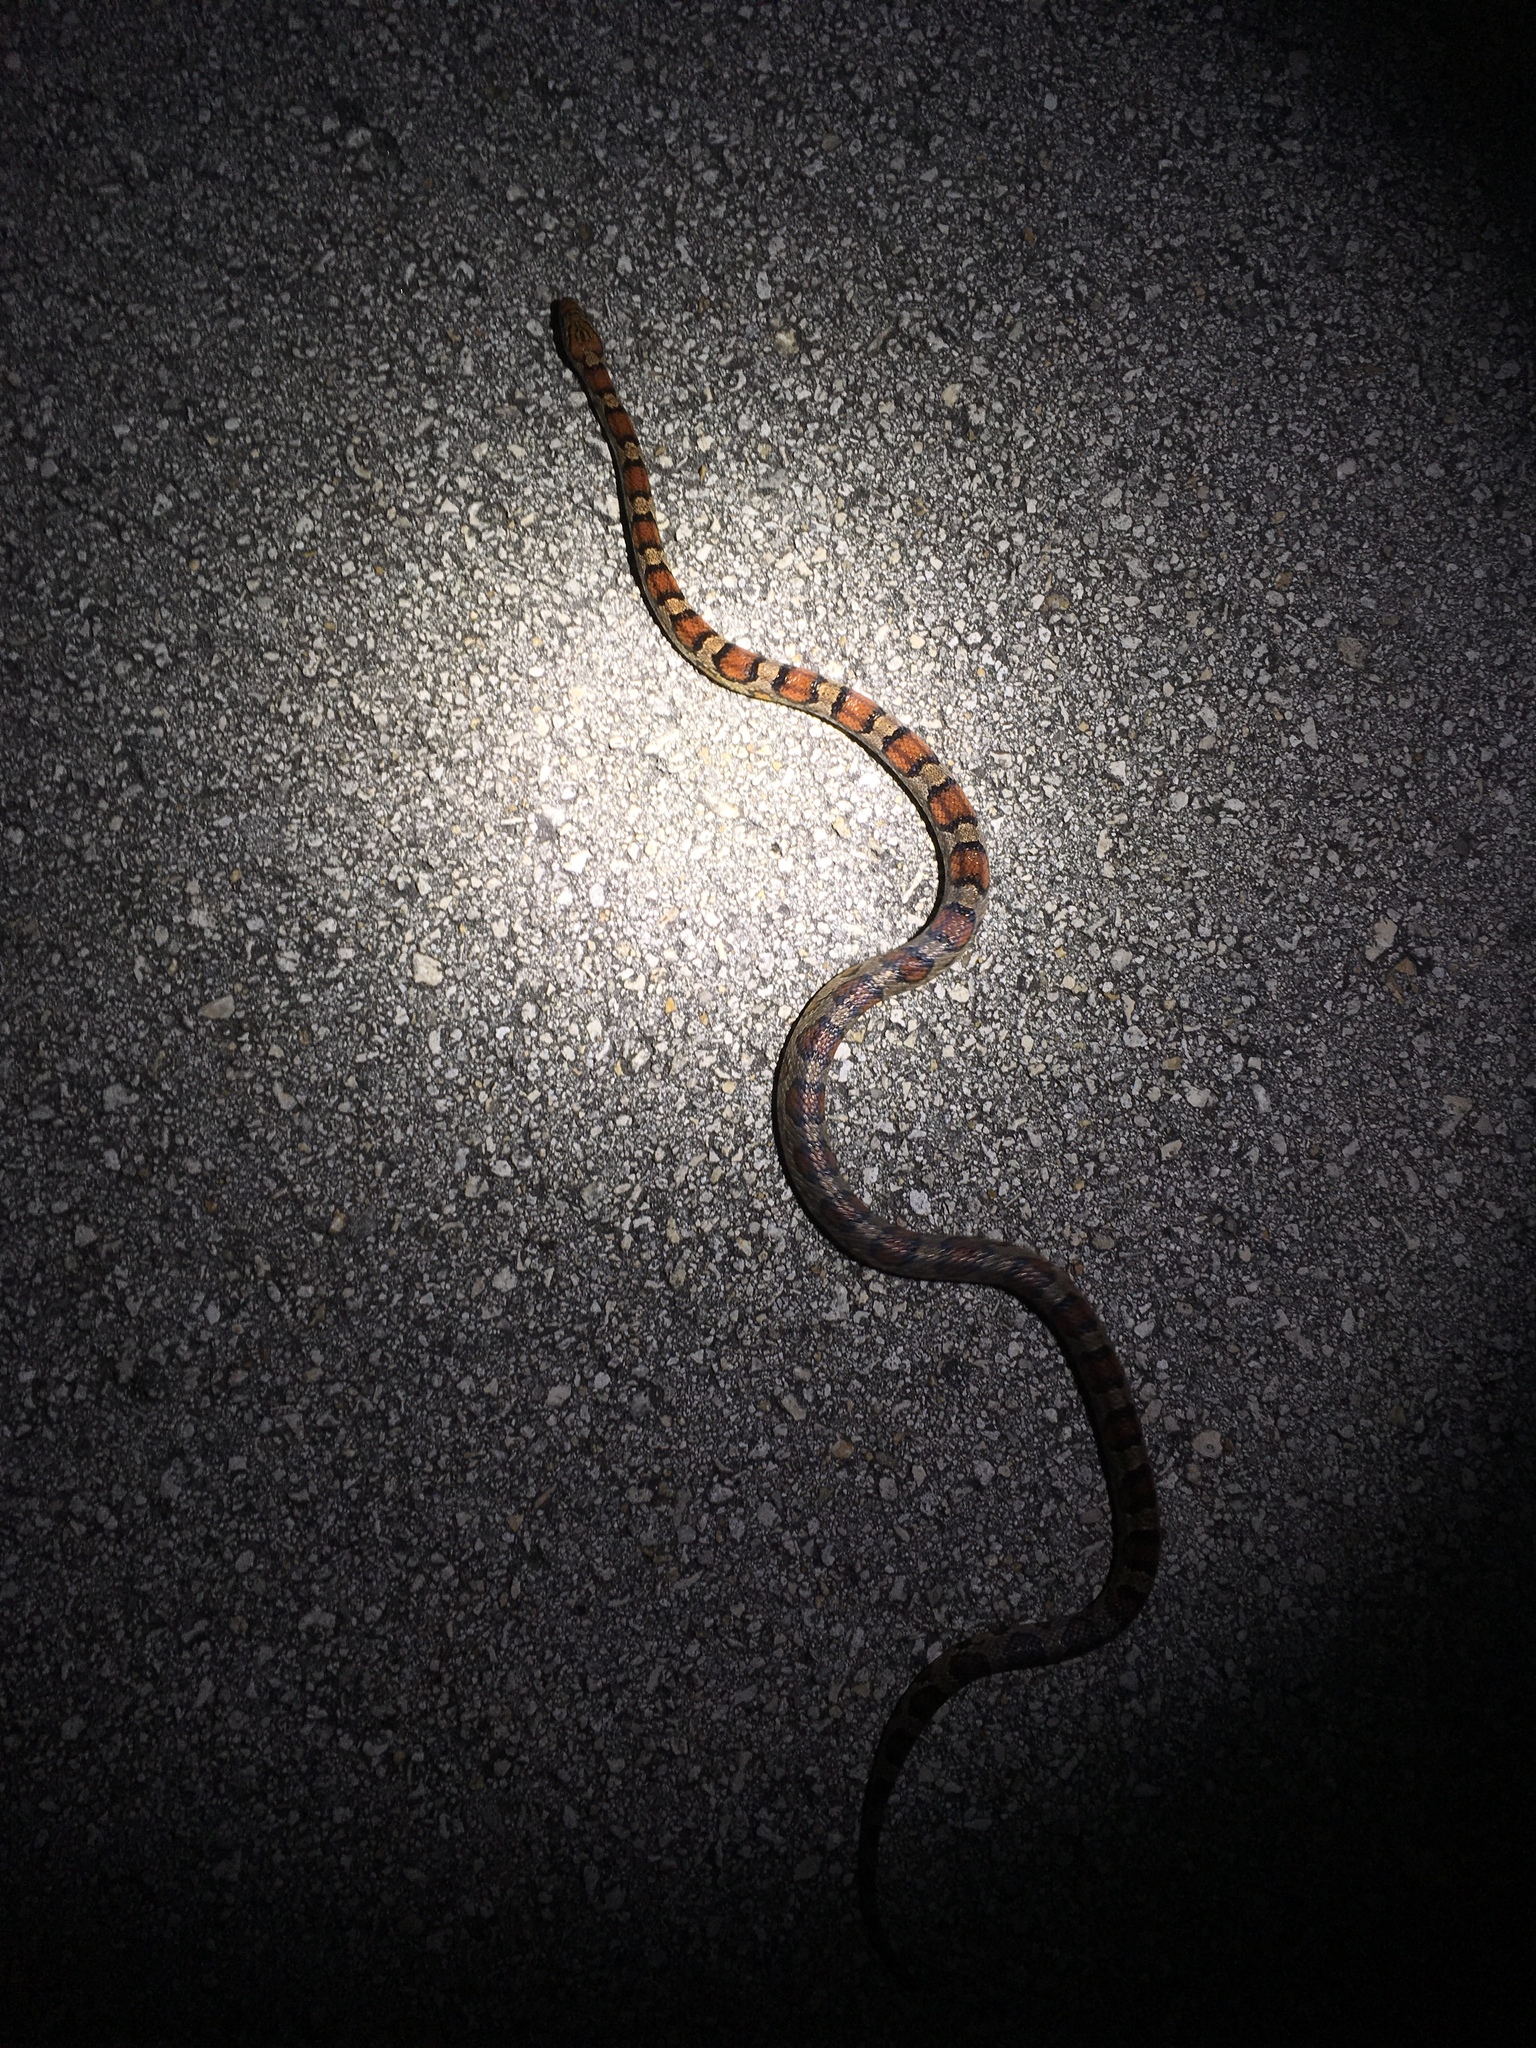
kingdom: Animalia
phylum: Chordata
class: Squamata
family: Colubridae
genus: Pantherophis
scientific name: Pantherophis guttatus
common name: Red cornsnake
